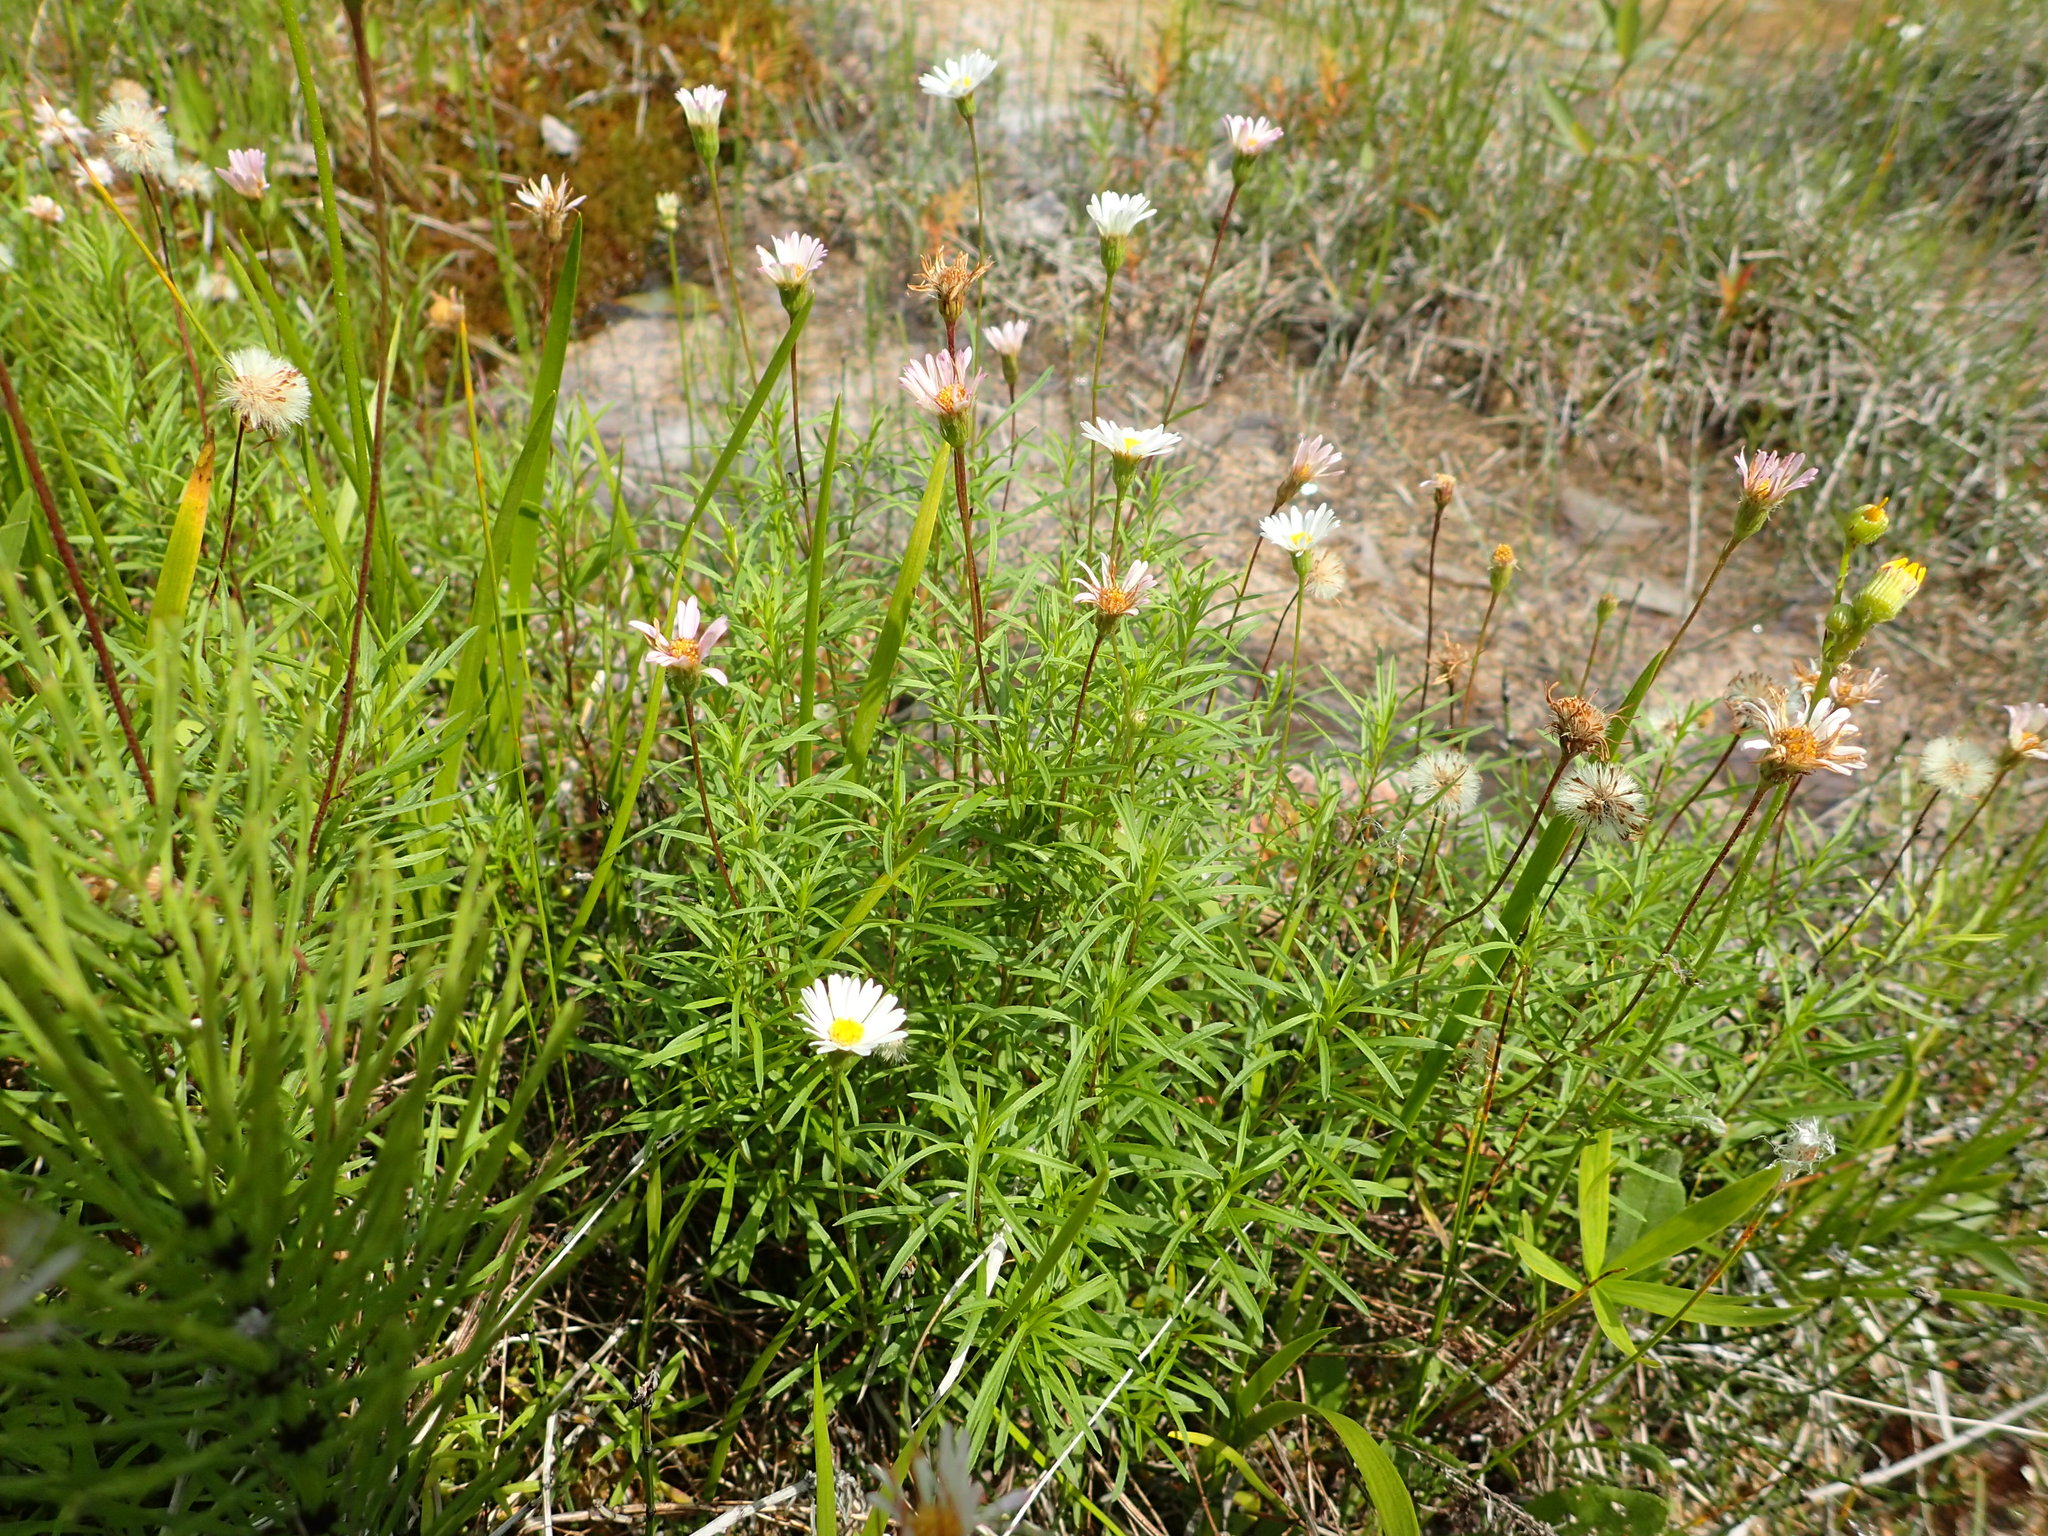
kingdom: Plantae
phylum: Tracheophyta
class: Magnoliopsida
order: Asterales
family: Asteraceae
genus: Erigeron
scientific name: Erigeron hyssopifolius
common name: Daisy fleabane
